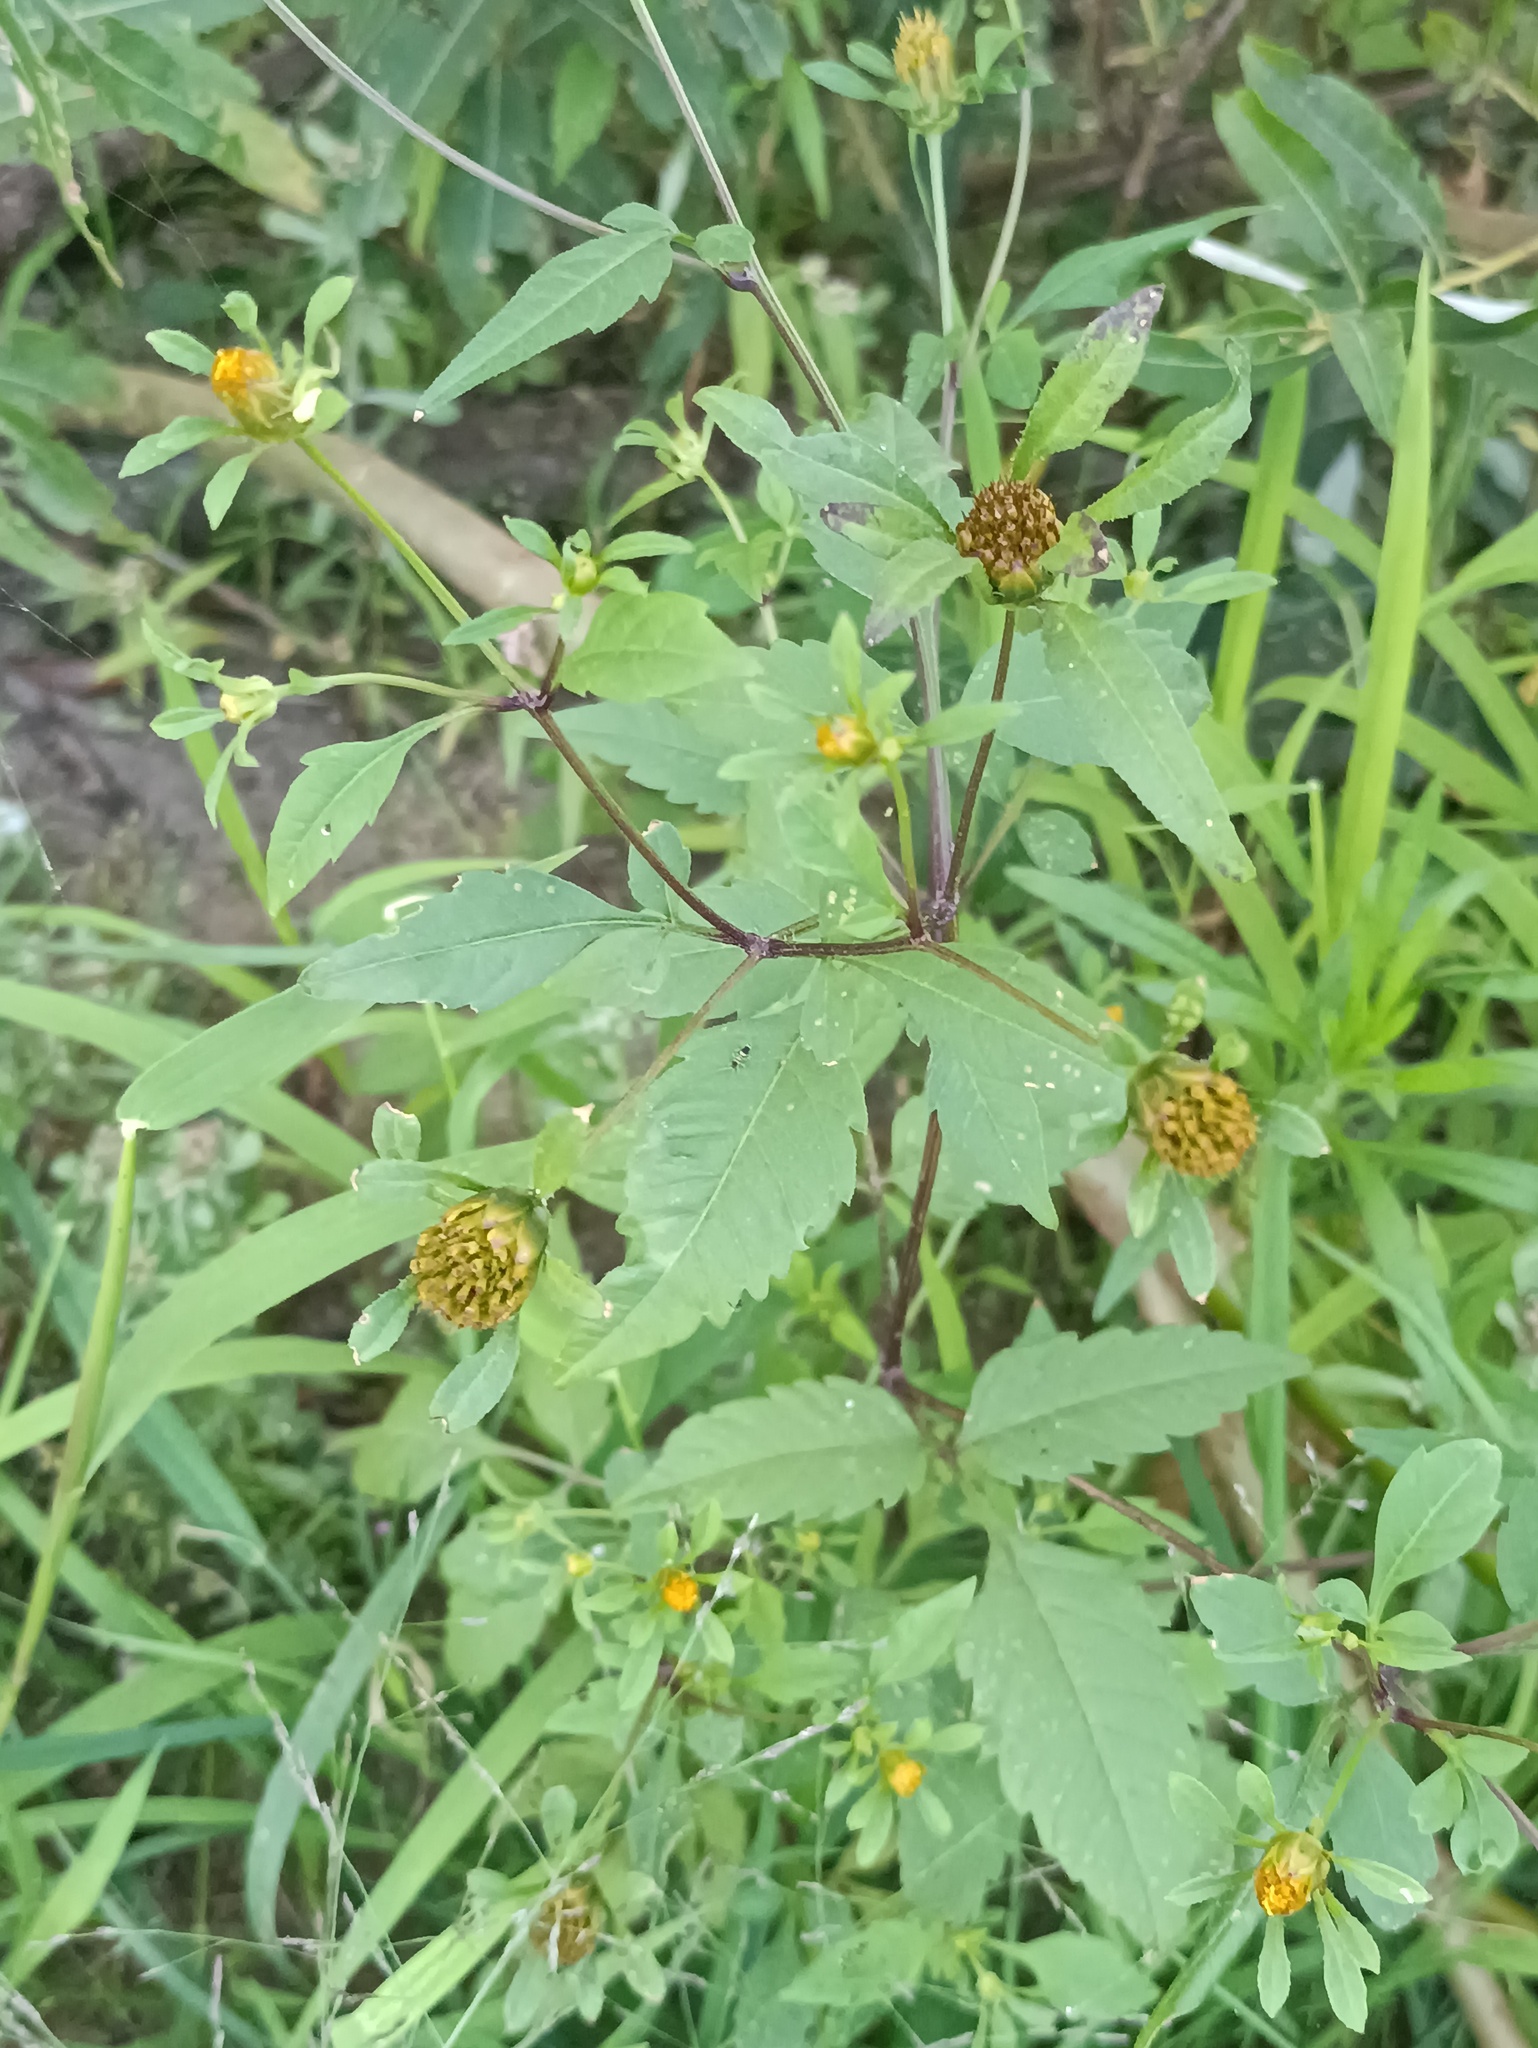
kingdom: Plantae
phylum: Tracheophyta
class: Magnoliopsida
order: Asterales
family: Asteraceae
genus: Bidens
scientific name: Bidens frondosa
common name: Beggarticks
